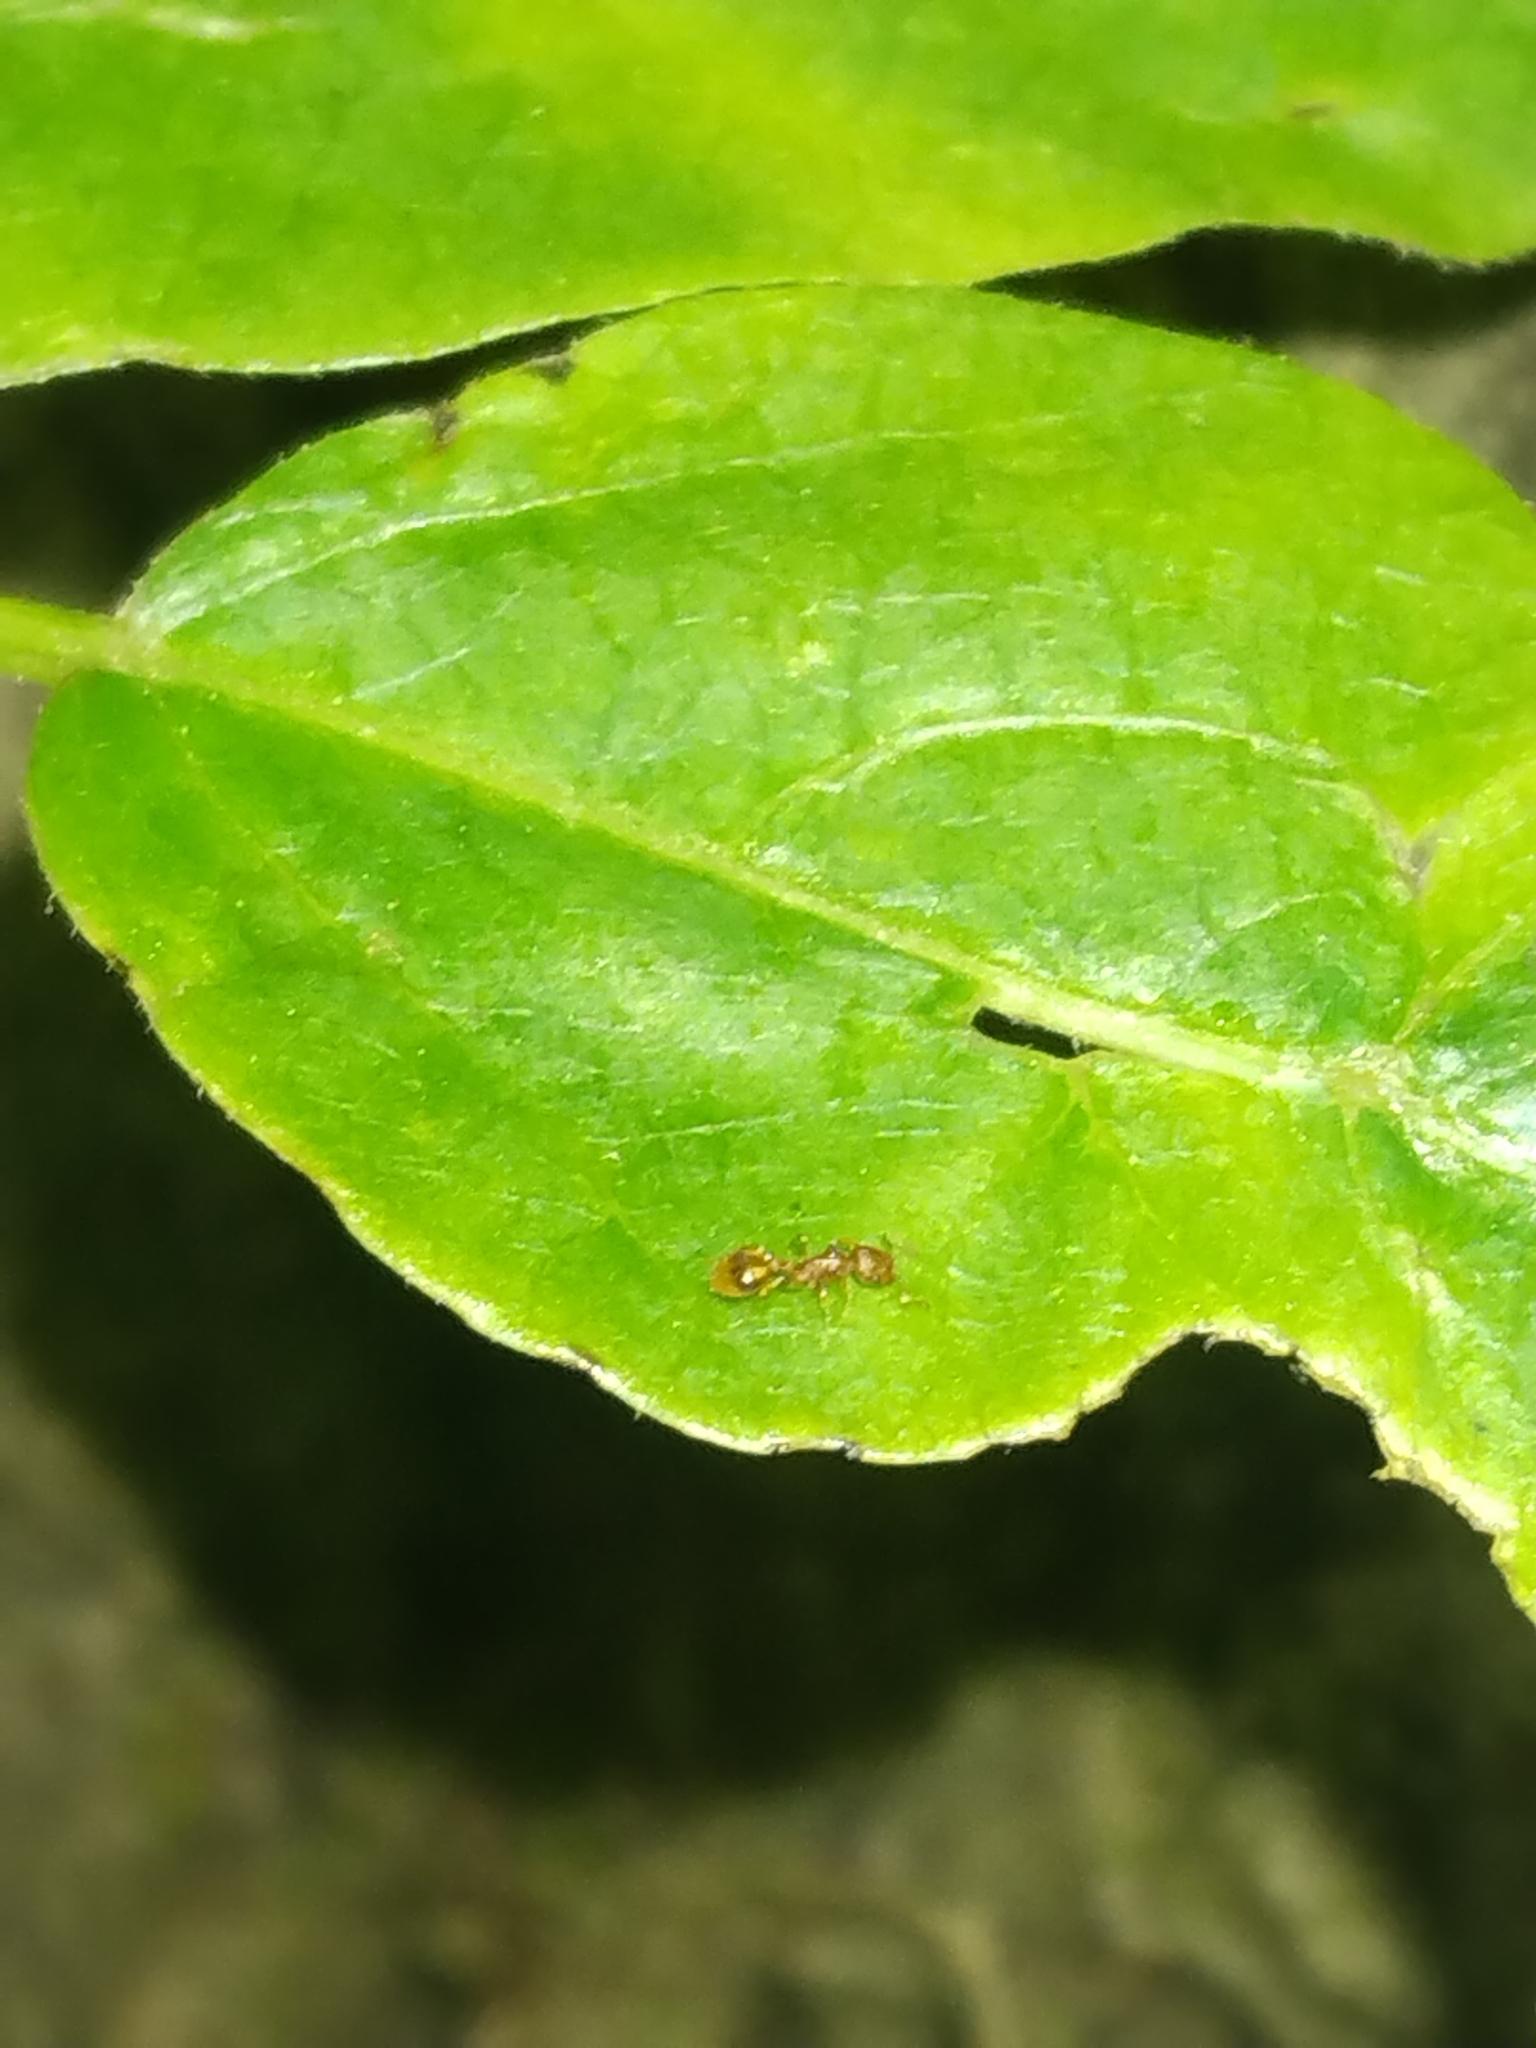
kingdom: Animalia
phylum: Arthropoda
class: Insecta
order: Hymenoptera
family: Formicidae
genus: Temnothorax
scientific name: Temnothorax curvispinosus
